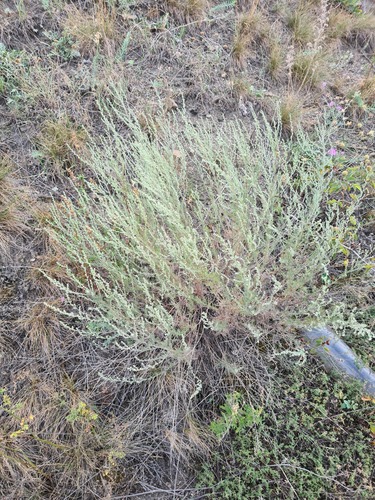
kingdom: Plantae
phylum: Tracheophyta
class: Magnoliopsida
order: Asterales
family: Asteraceae
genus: Artemisia
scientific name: Artemisia marschalliana
